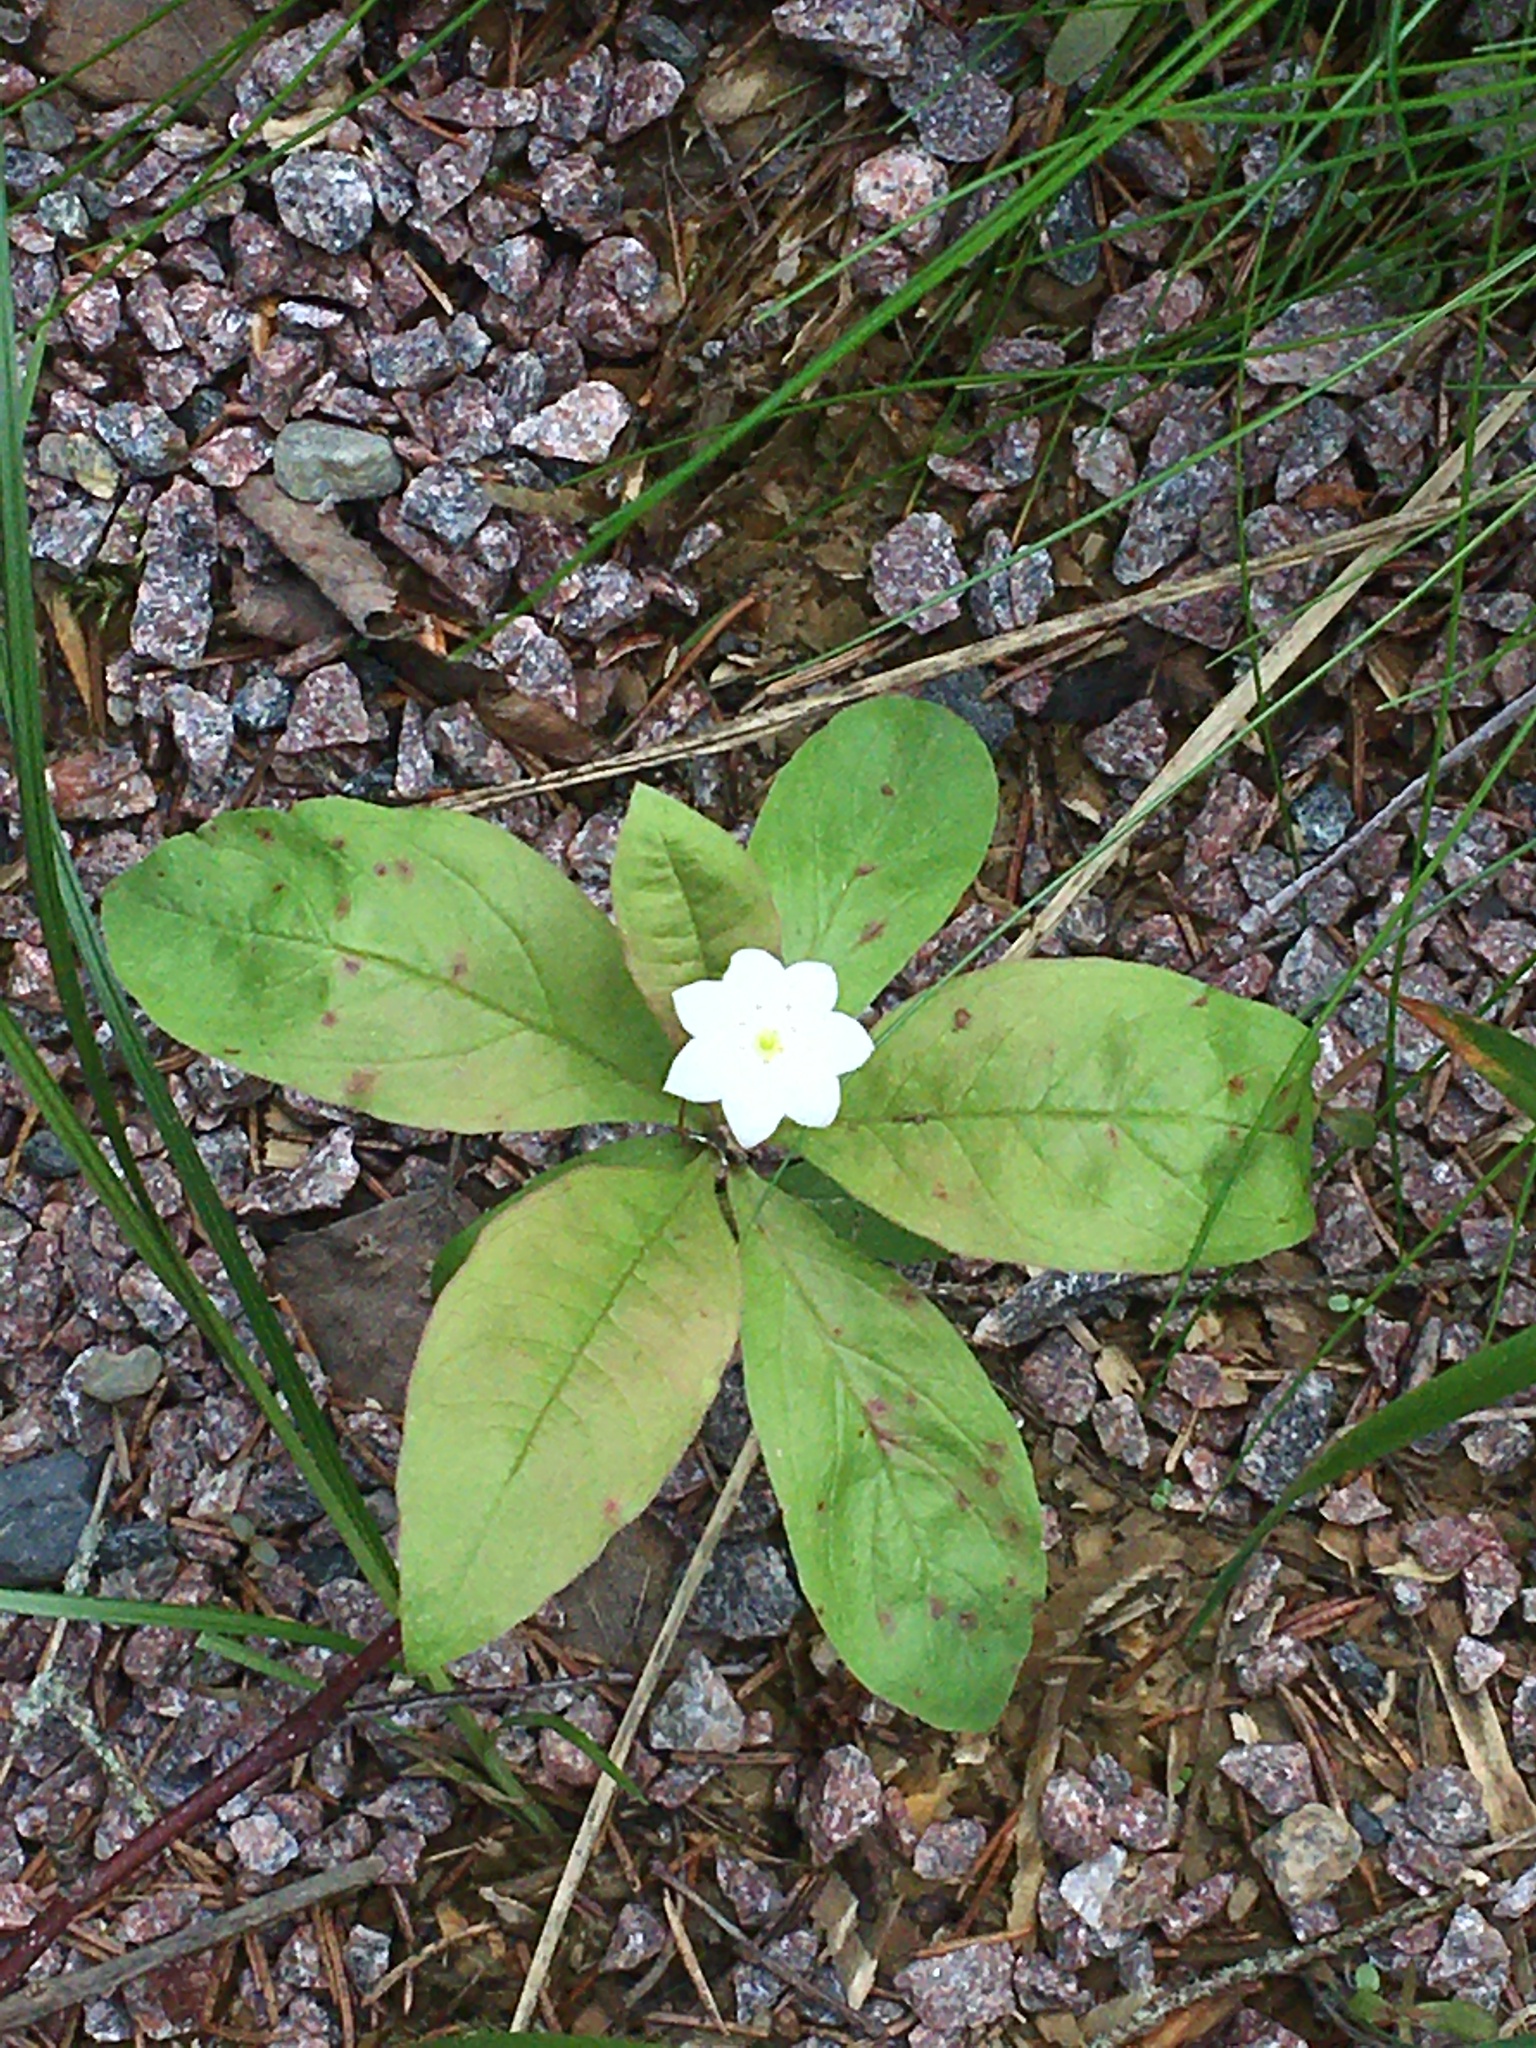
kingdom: Plantae
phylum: Tracheophyta
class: Magnoliopsida
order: Ericales
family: Primulaceae
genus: Lysimachia
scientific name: Lysimachia europaea
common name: Arctic starflower
